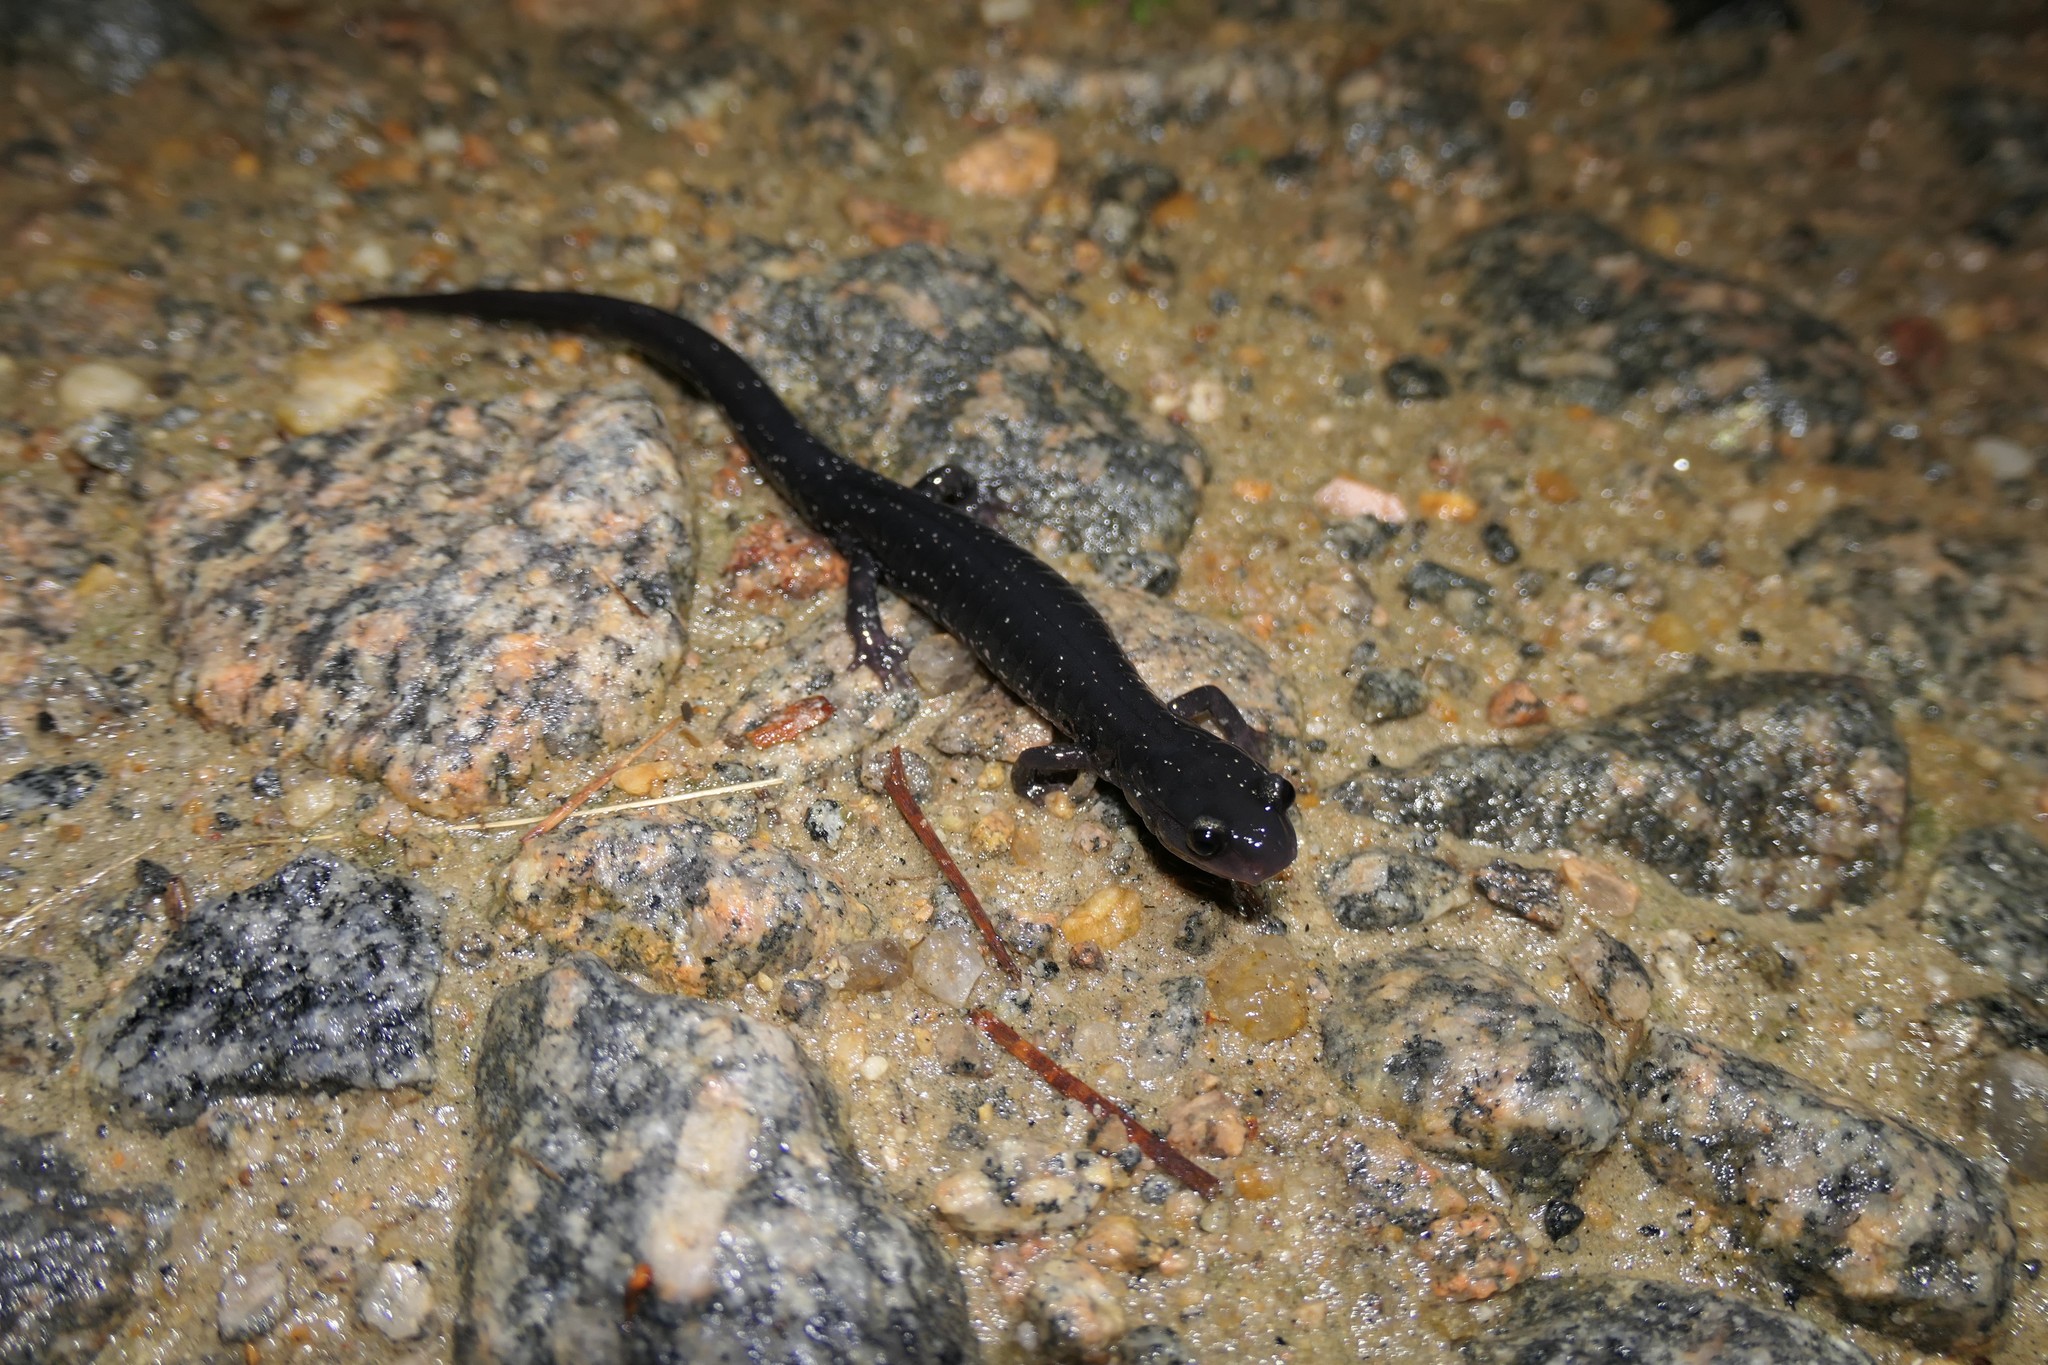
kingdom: Animalia
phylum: Chordata
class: Amphibia
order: Caudata
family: Plethodontidae
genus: Plethodon
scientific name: Plethodon chlorobryonis
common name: Atlantic coast slimy salamander
